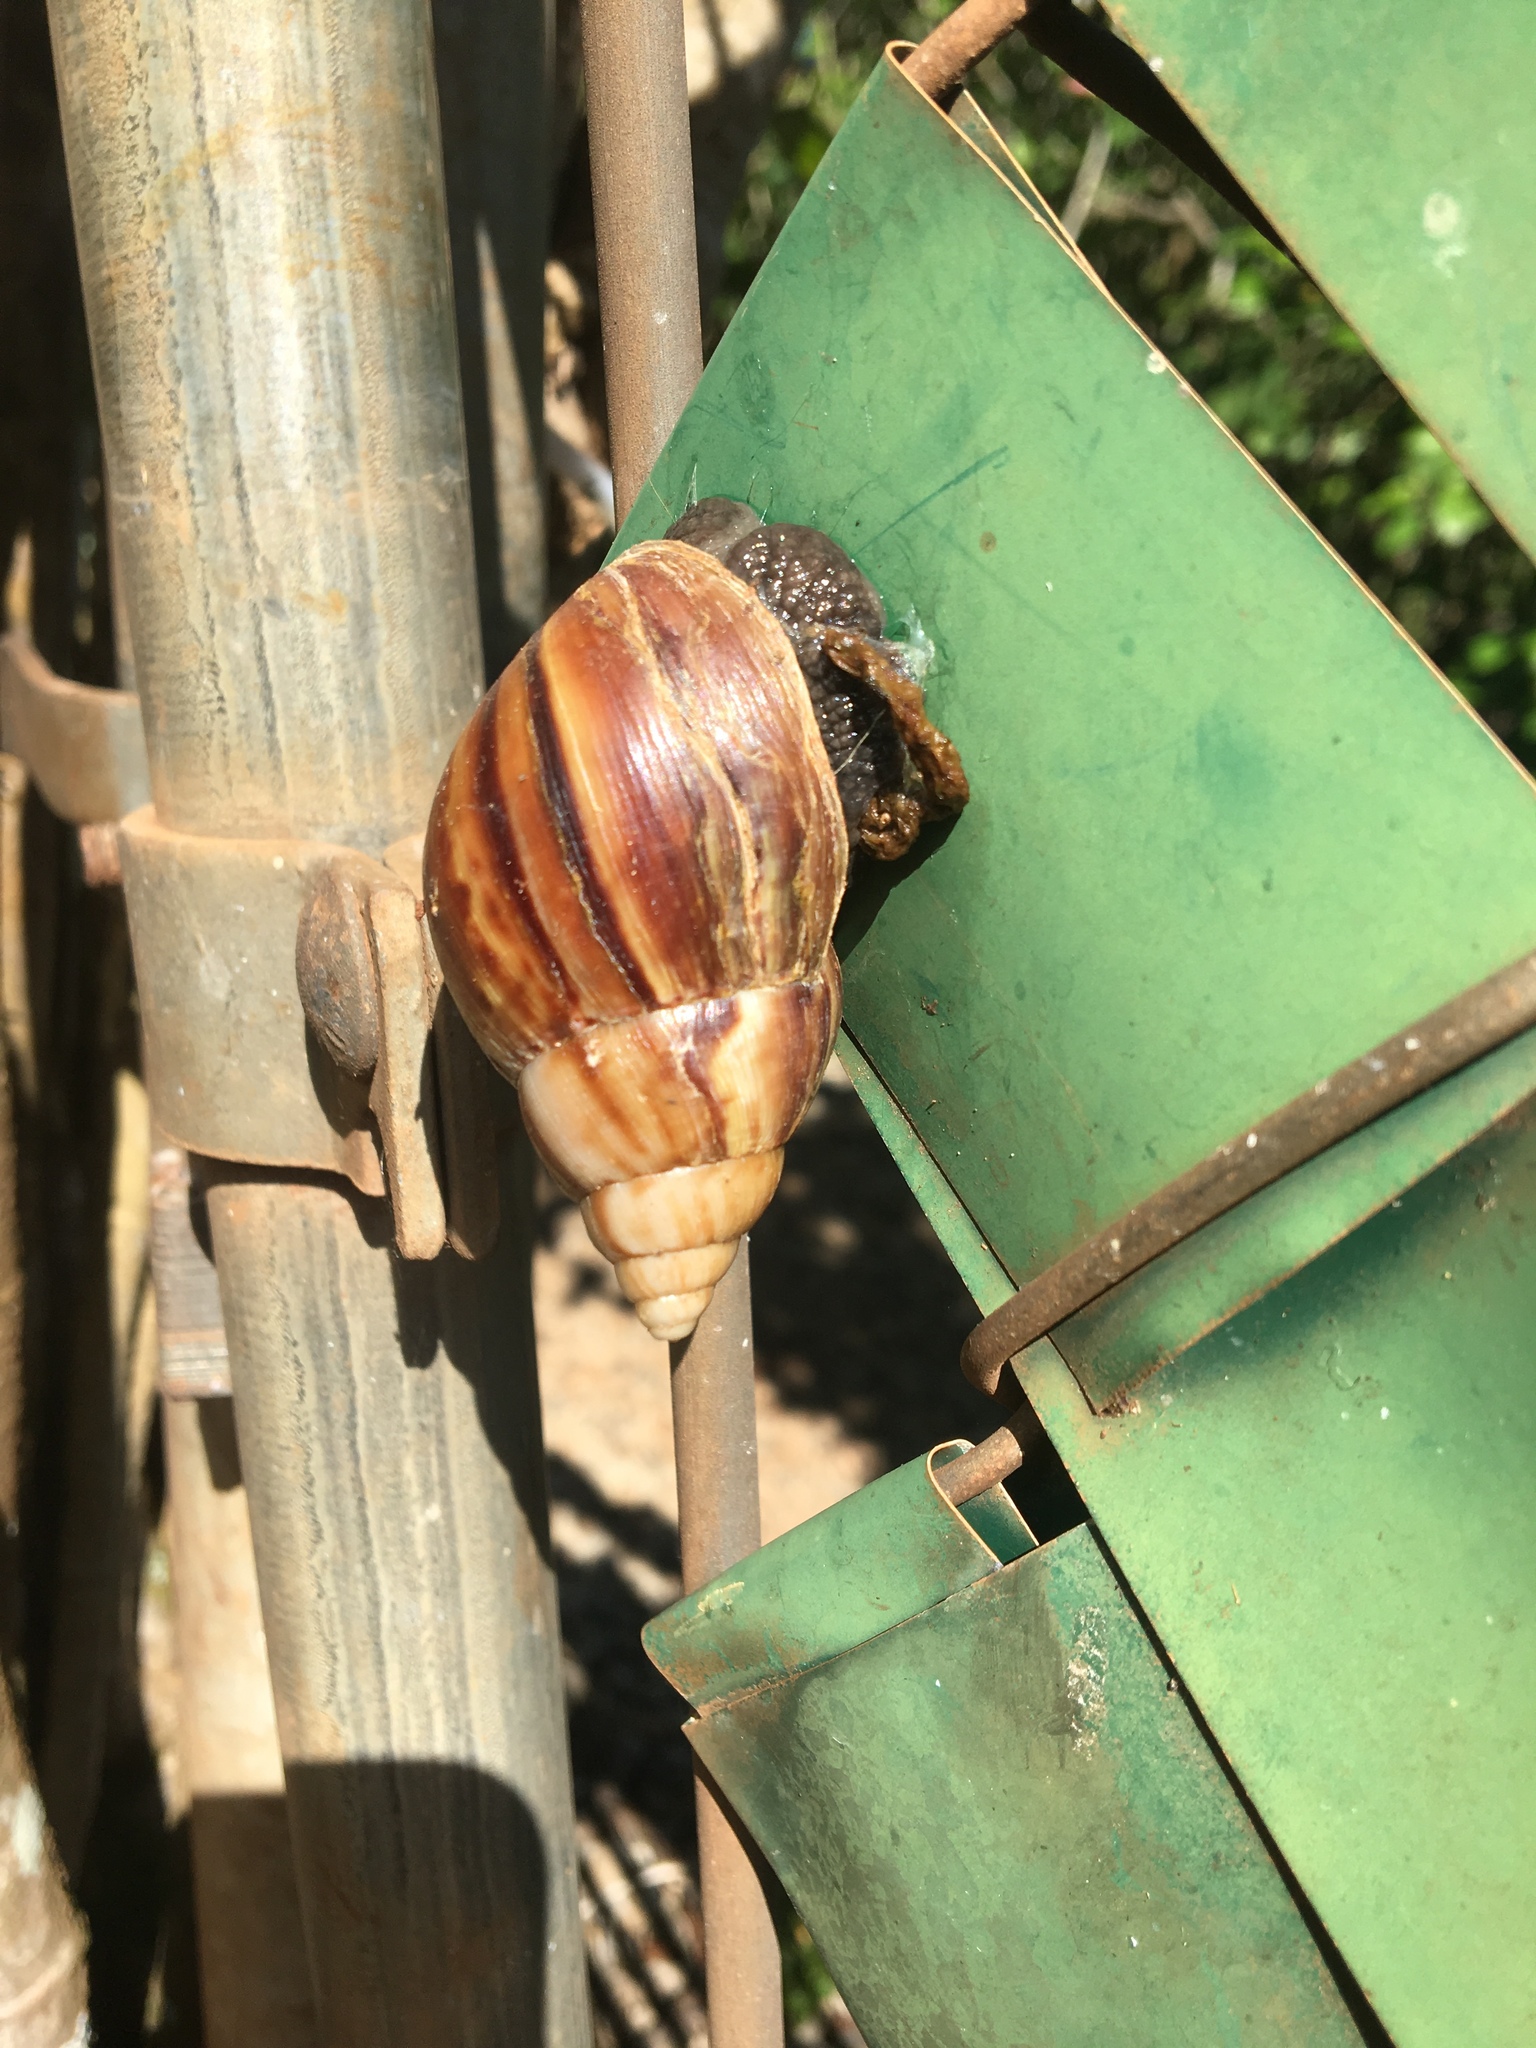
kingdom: Animalia
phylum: Mollusca
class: Gastropoda
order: Stylommatophora
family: Achatinidae
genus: Lissachatina
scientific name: Lissachatina fulica
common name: Giant african snail
